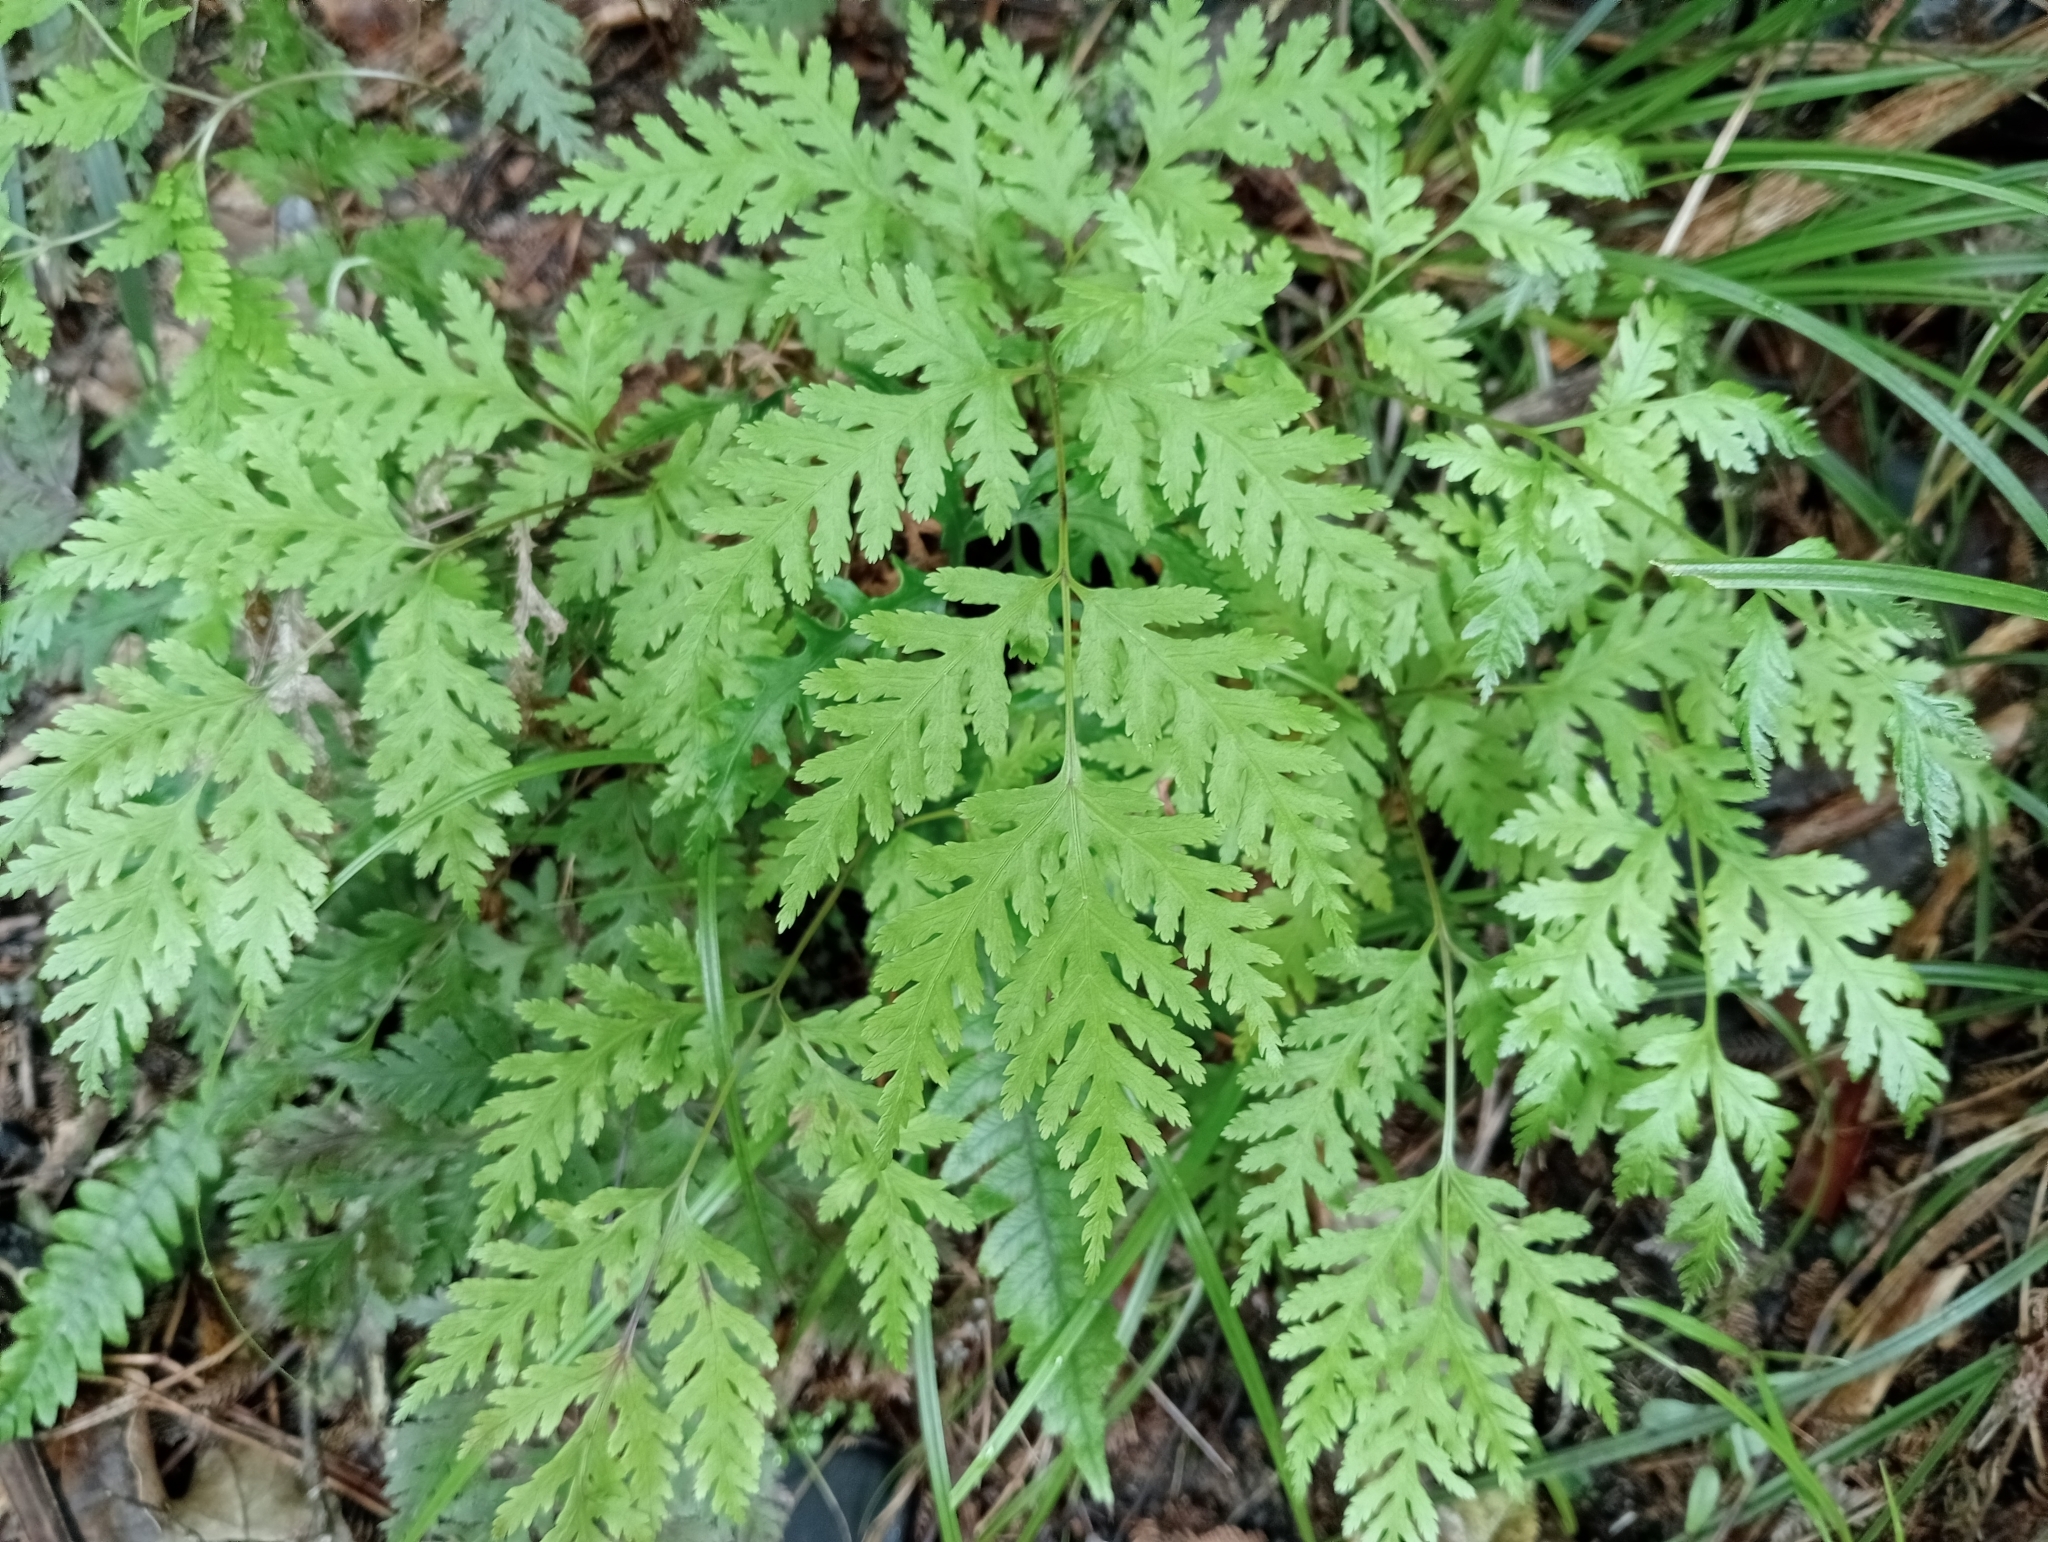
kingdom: Plantae
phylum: Tracheophyta
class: Polypodiopsida
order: Polypodiales
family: Pteridaceae
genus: Pteris
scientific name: Pteris macilenta
